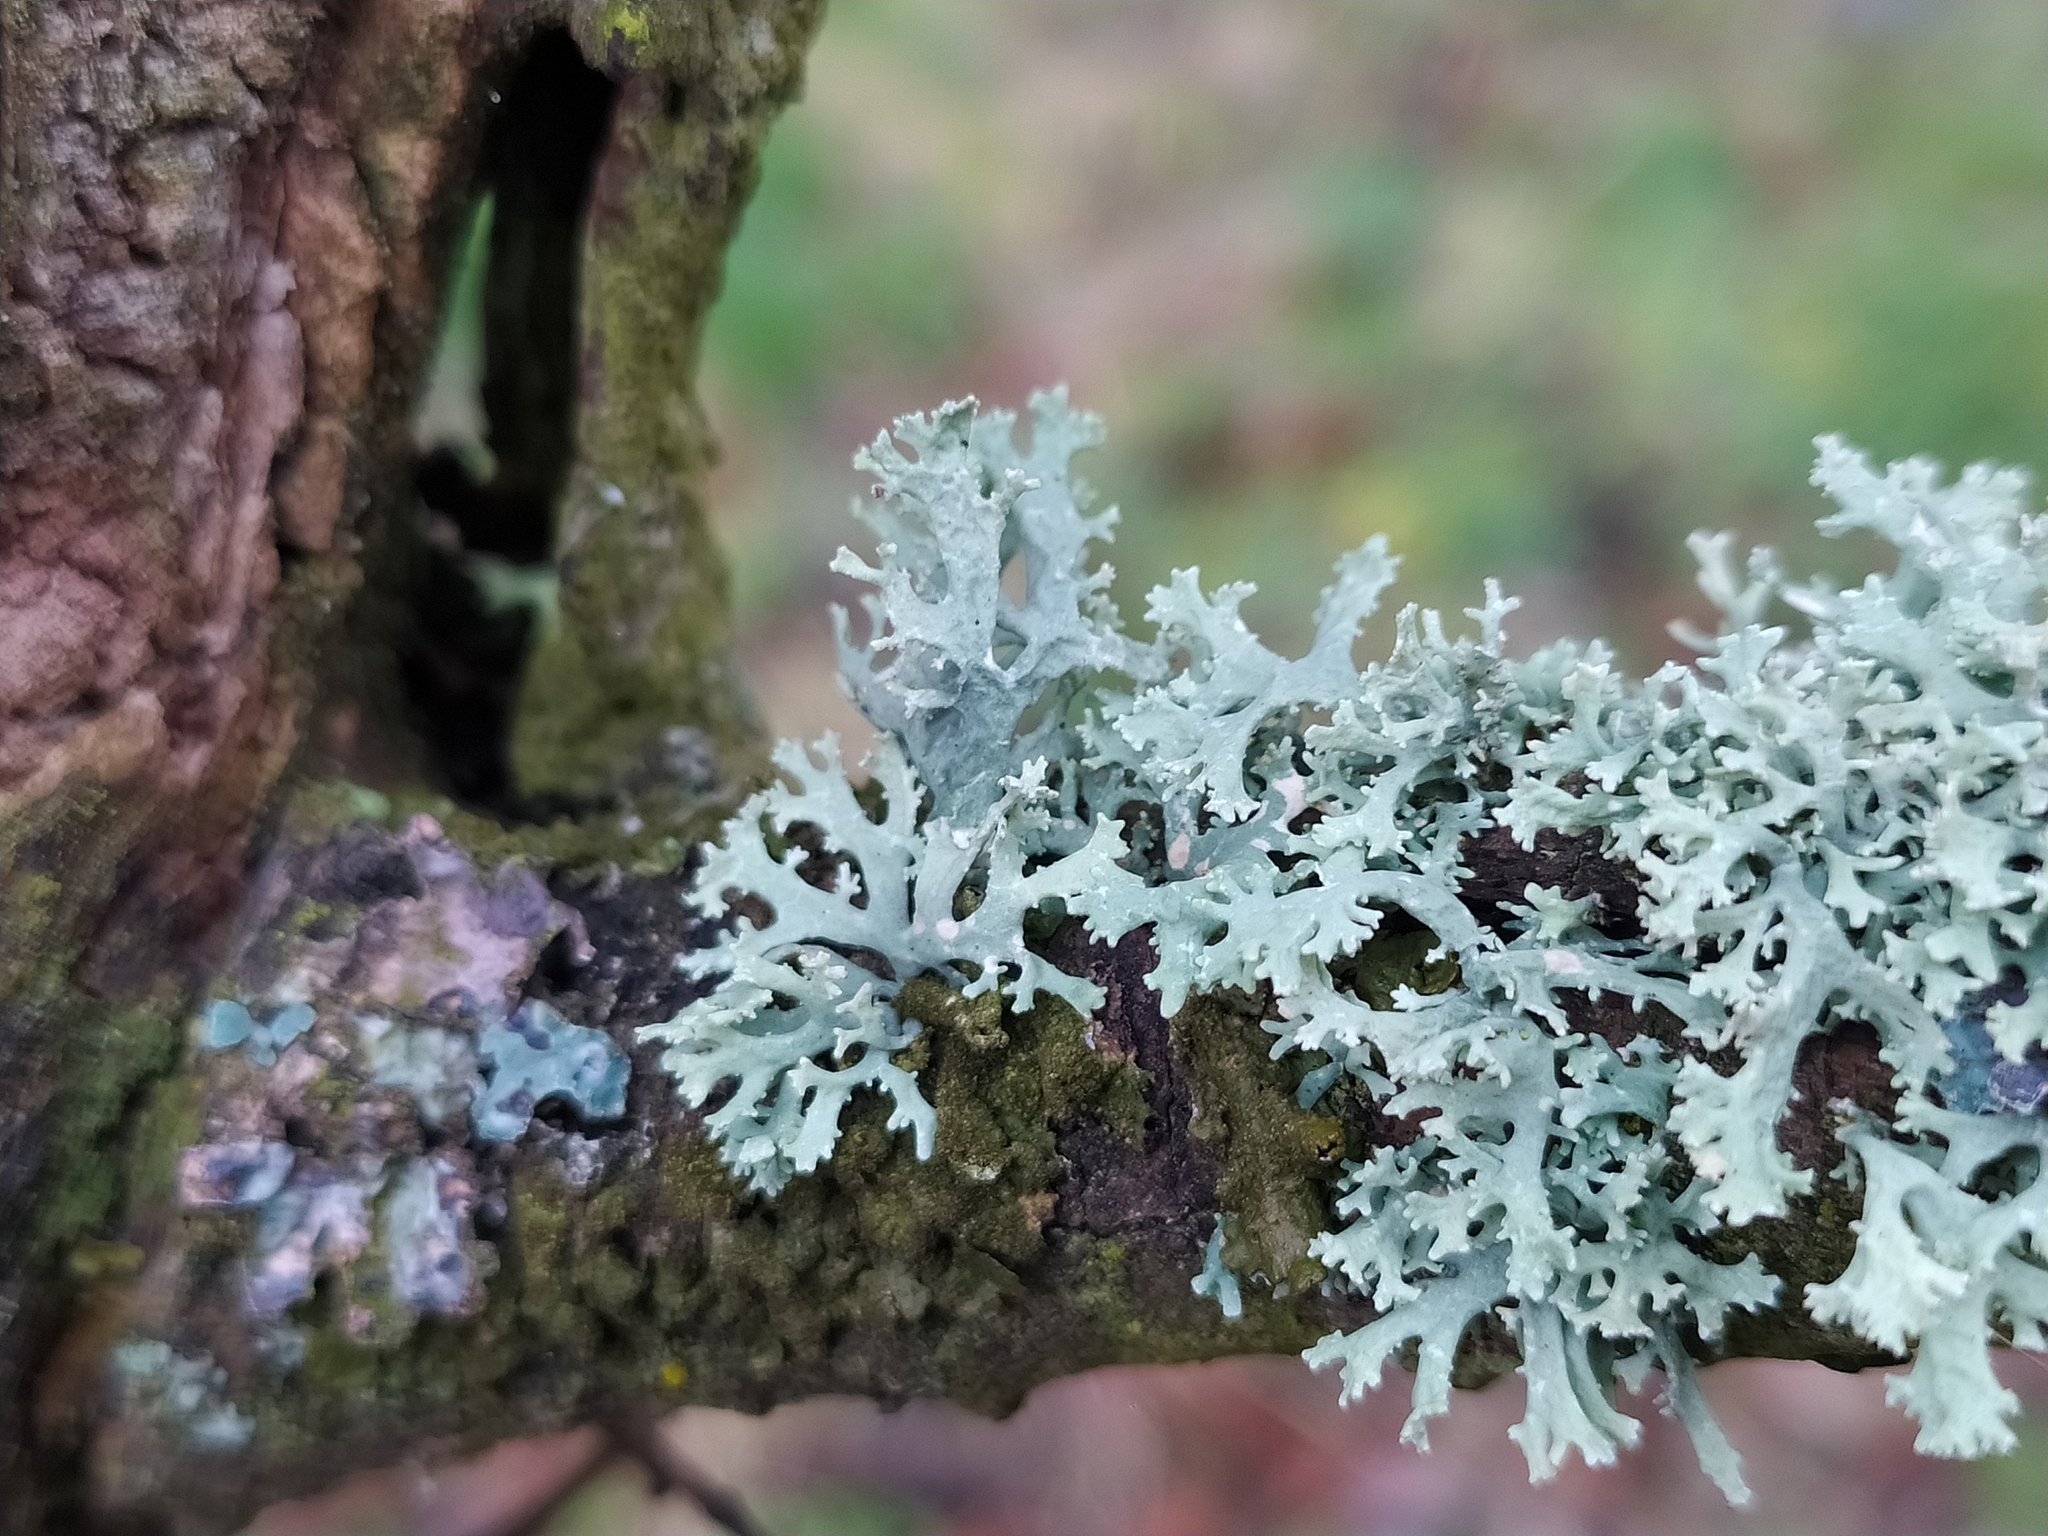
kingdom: Fungi
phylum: Ascomycota
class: Lecanoromycetes
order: Lecanorales
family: Parmeliaceae
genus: Evernia
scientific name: Evernia prunastri
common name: Oak moss
